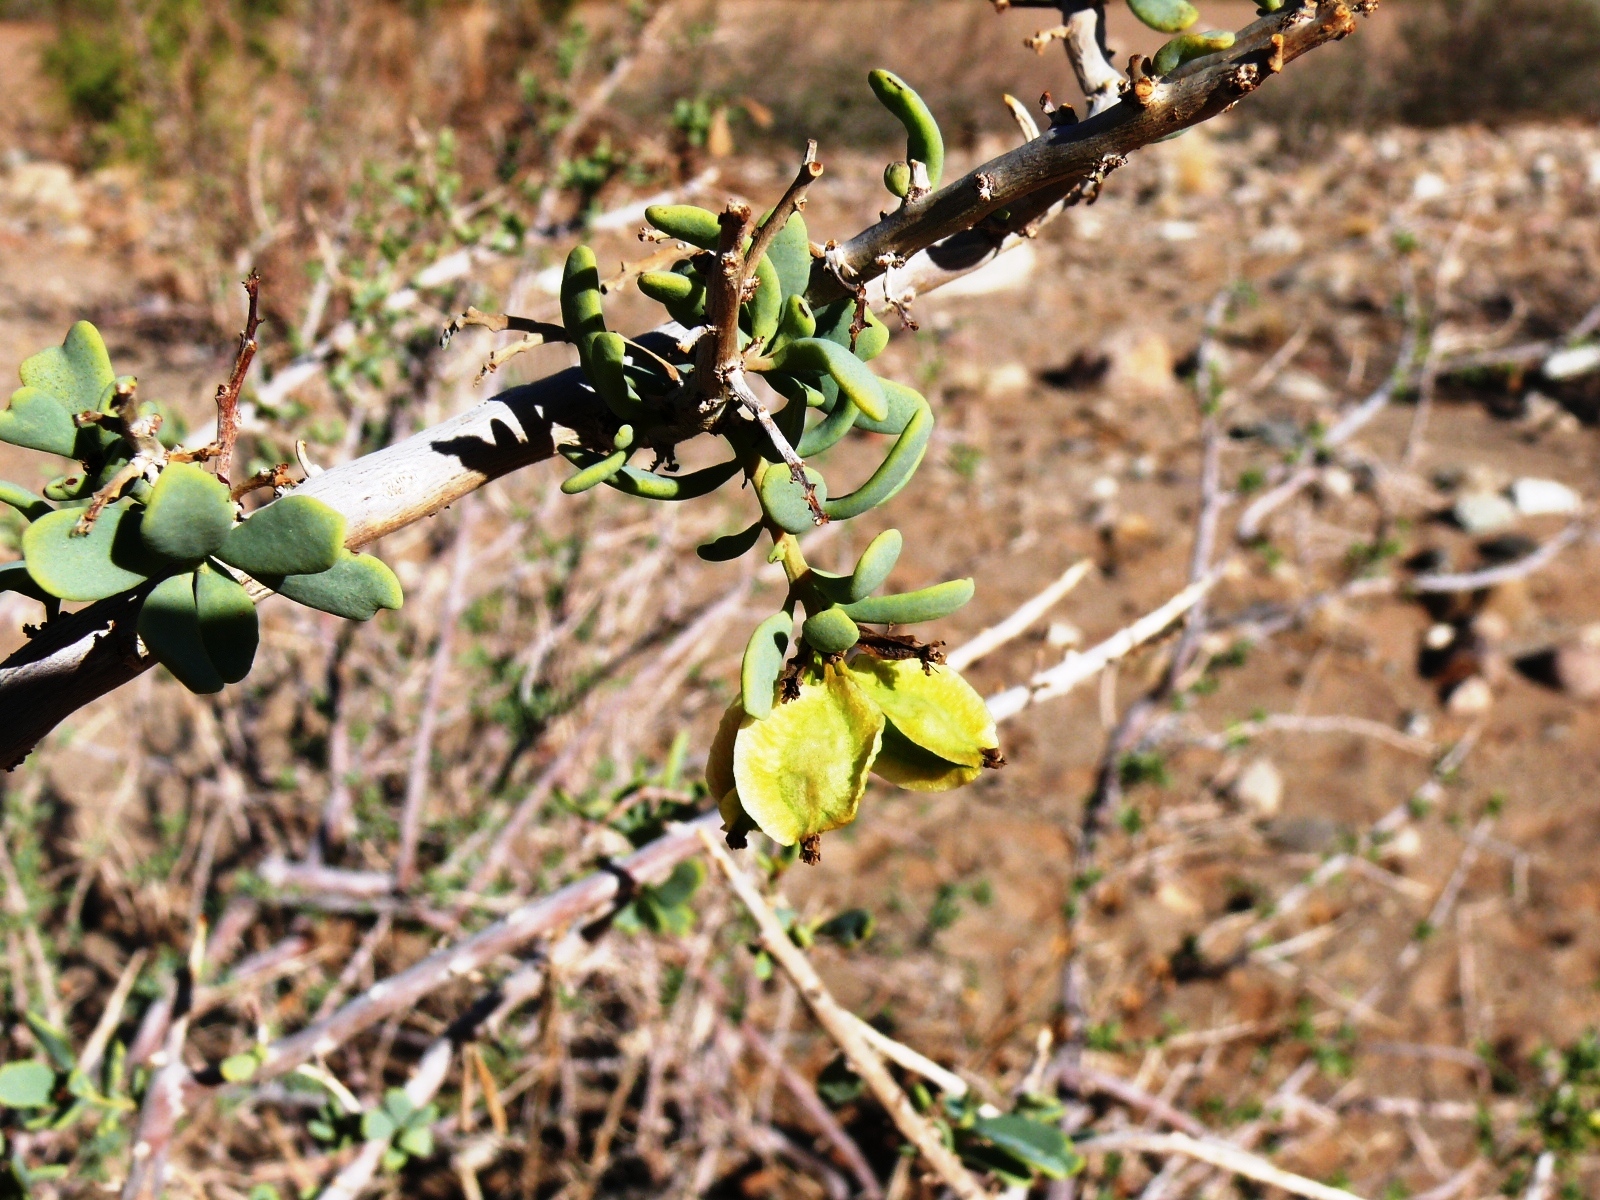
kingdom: Plantae
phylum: Tracheophyta
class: Magnoliopsida
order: Caryophyllales
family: Aizoaceae
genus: Anisostigma
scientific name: Anisostigma schenckii
